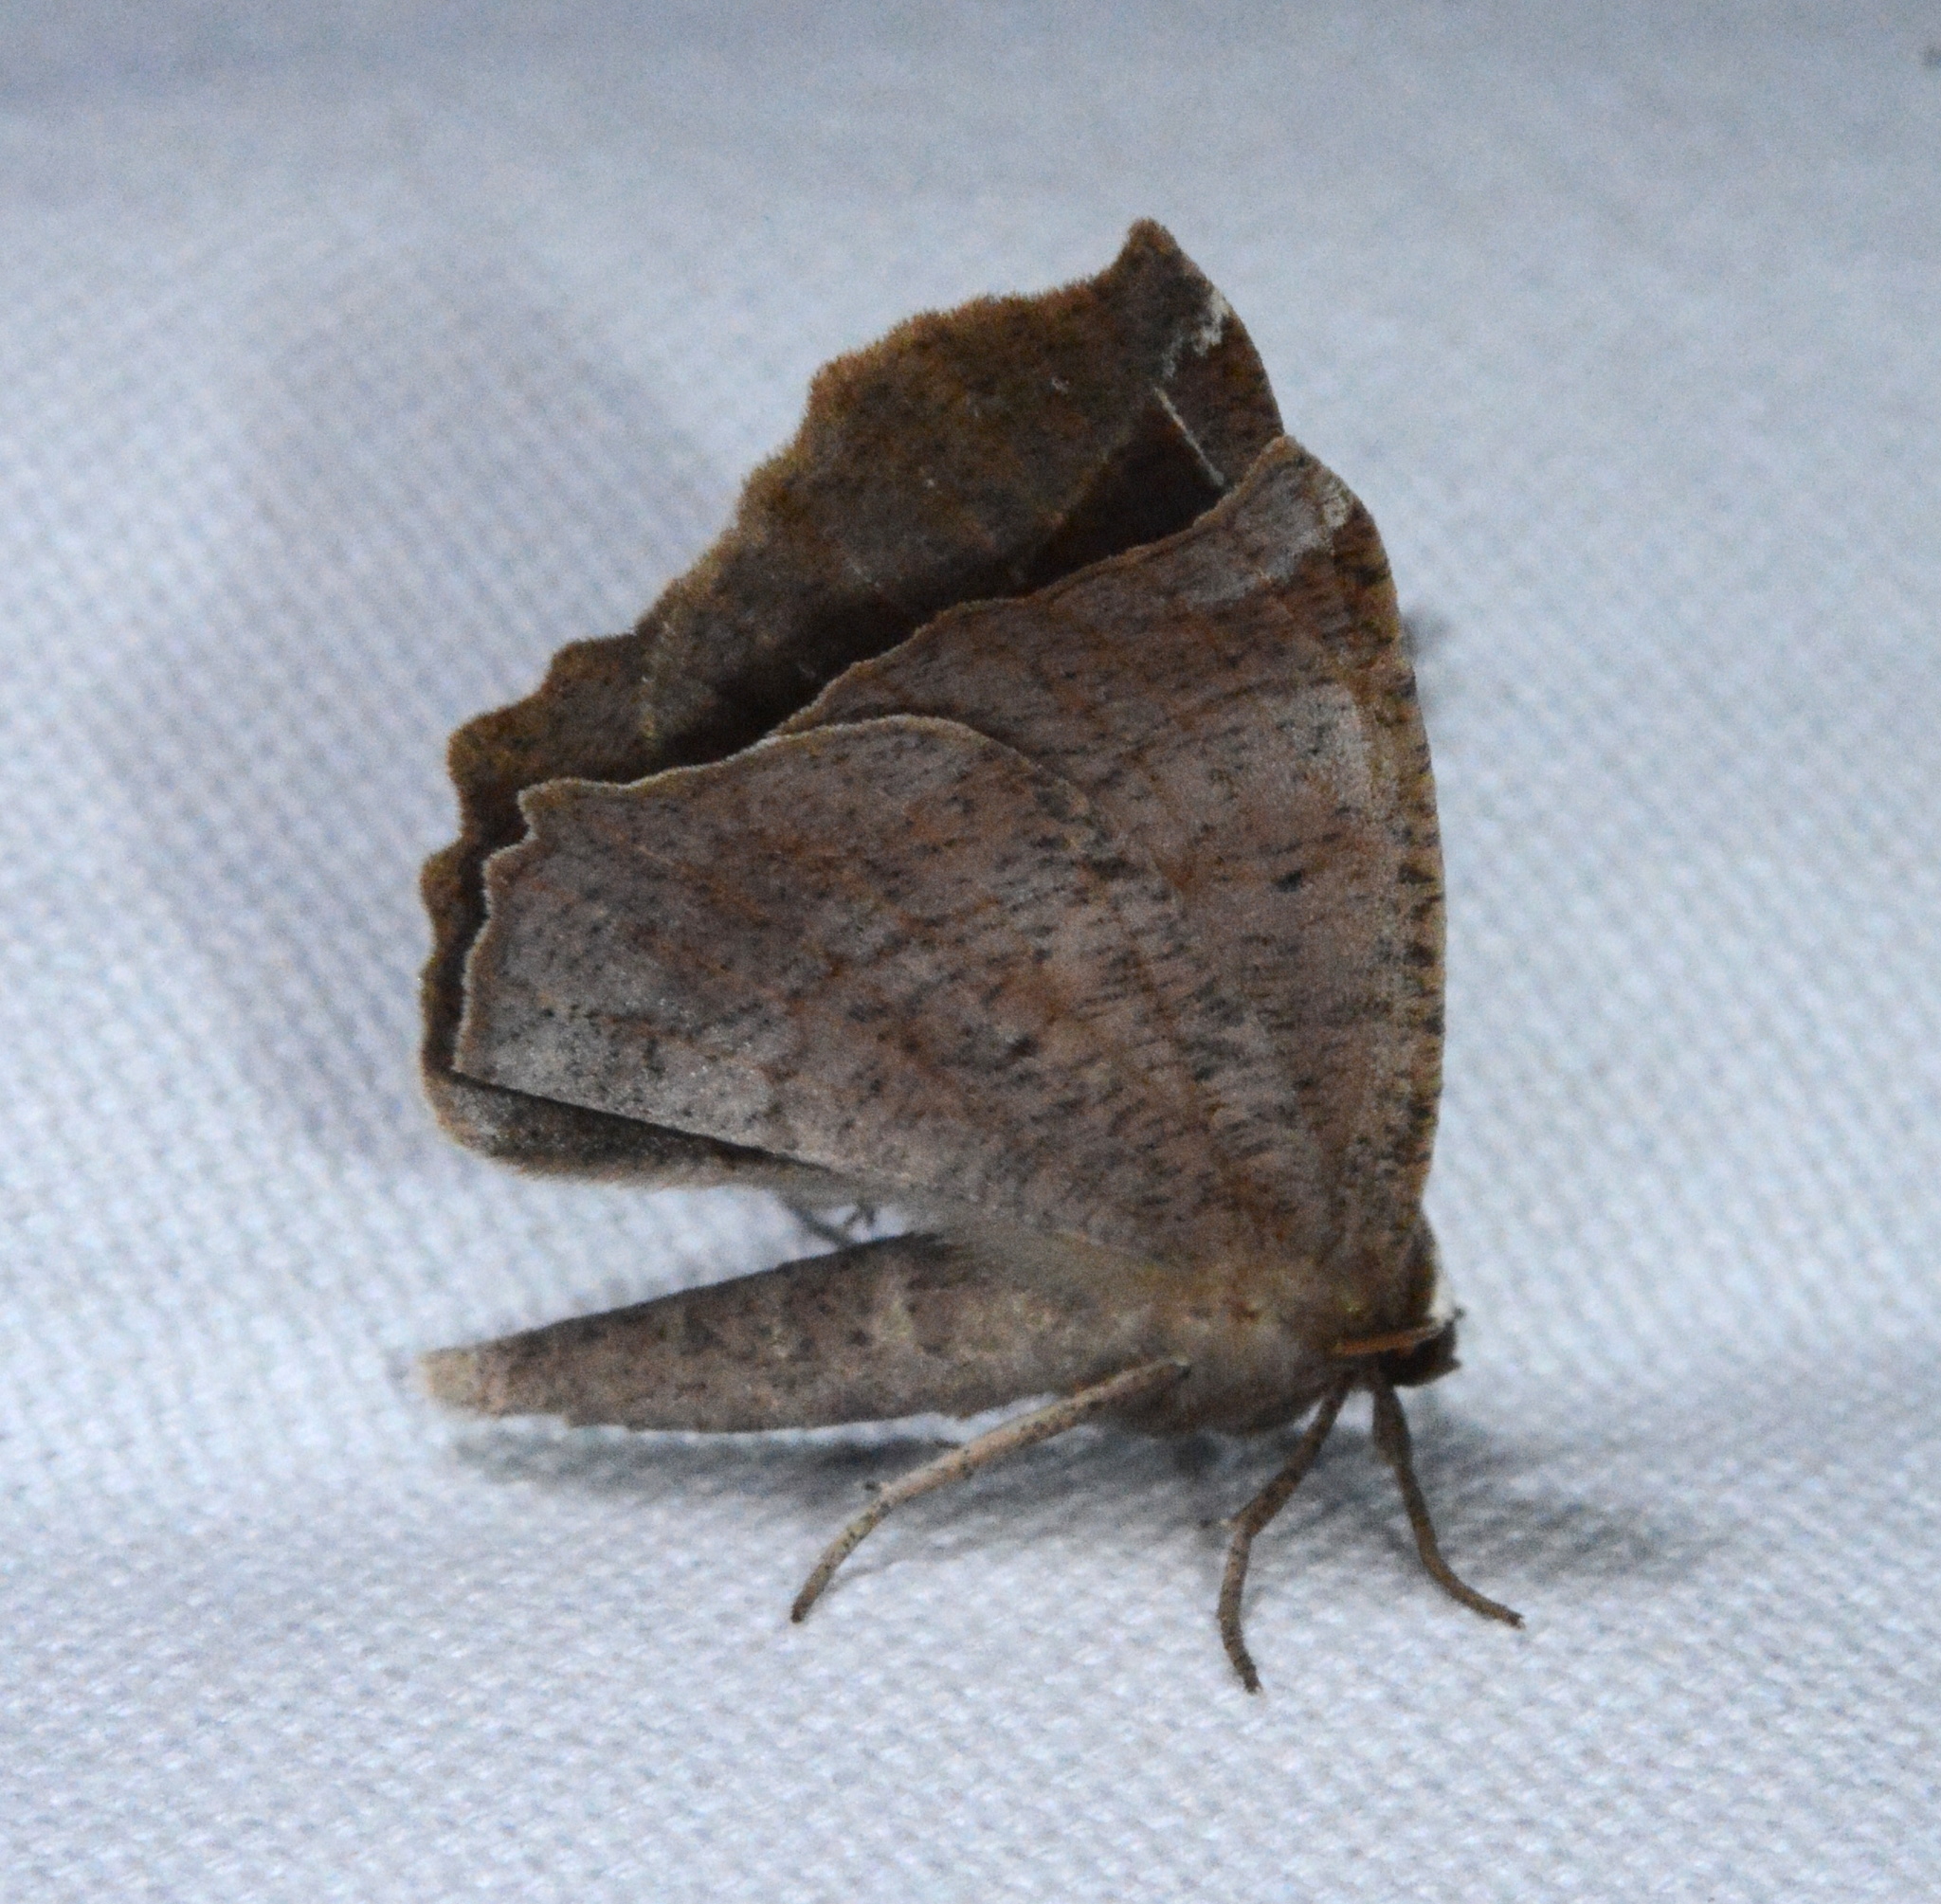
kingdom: Animalia
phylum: Arthropoda
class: Insecta
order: Lepidoptera
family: Geometridae
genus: Eutrapela
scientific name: Eutrapela clemataria
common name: Curved-toothed geometer
